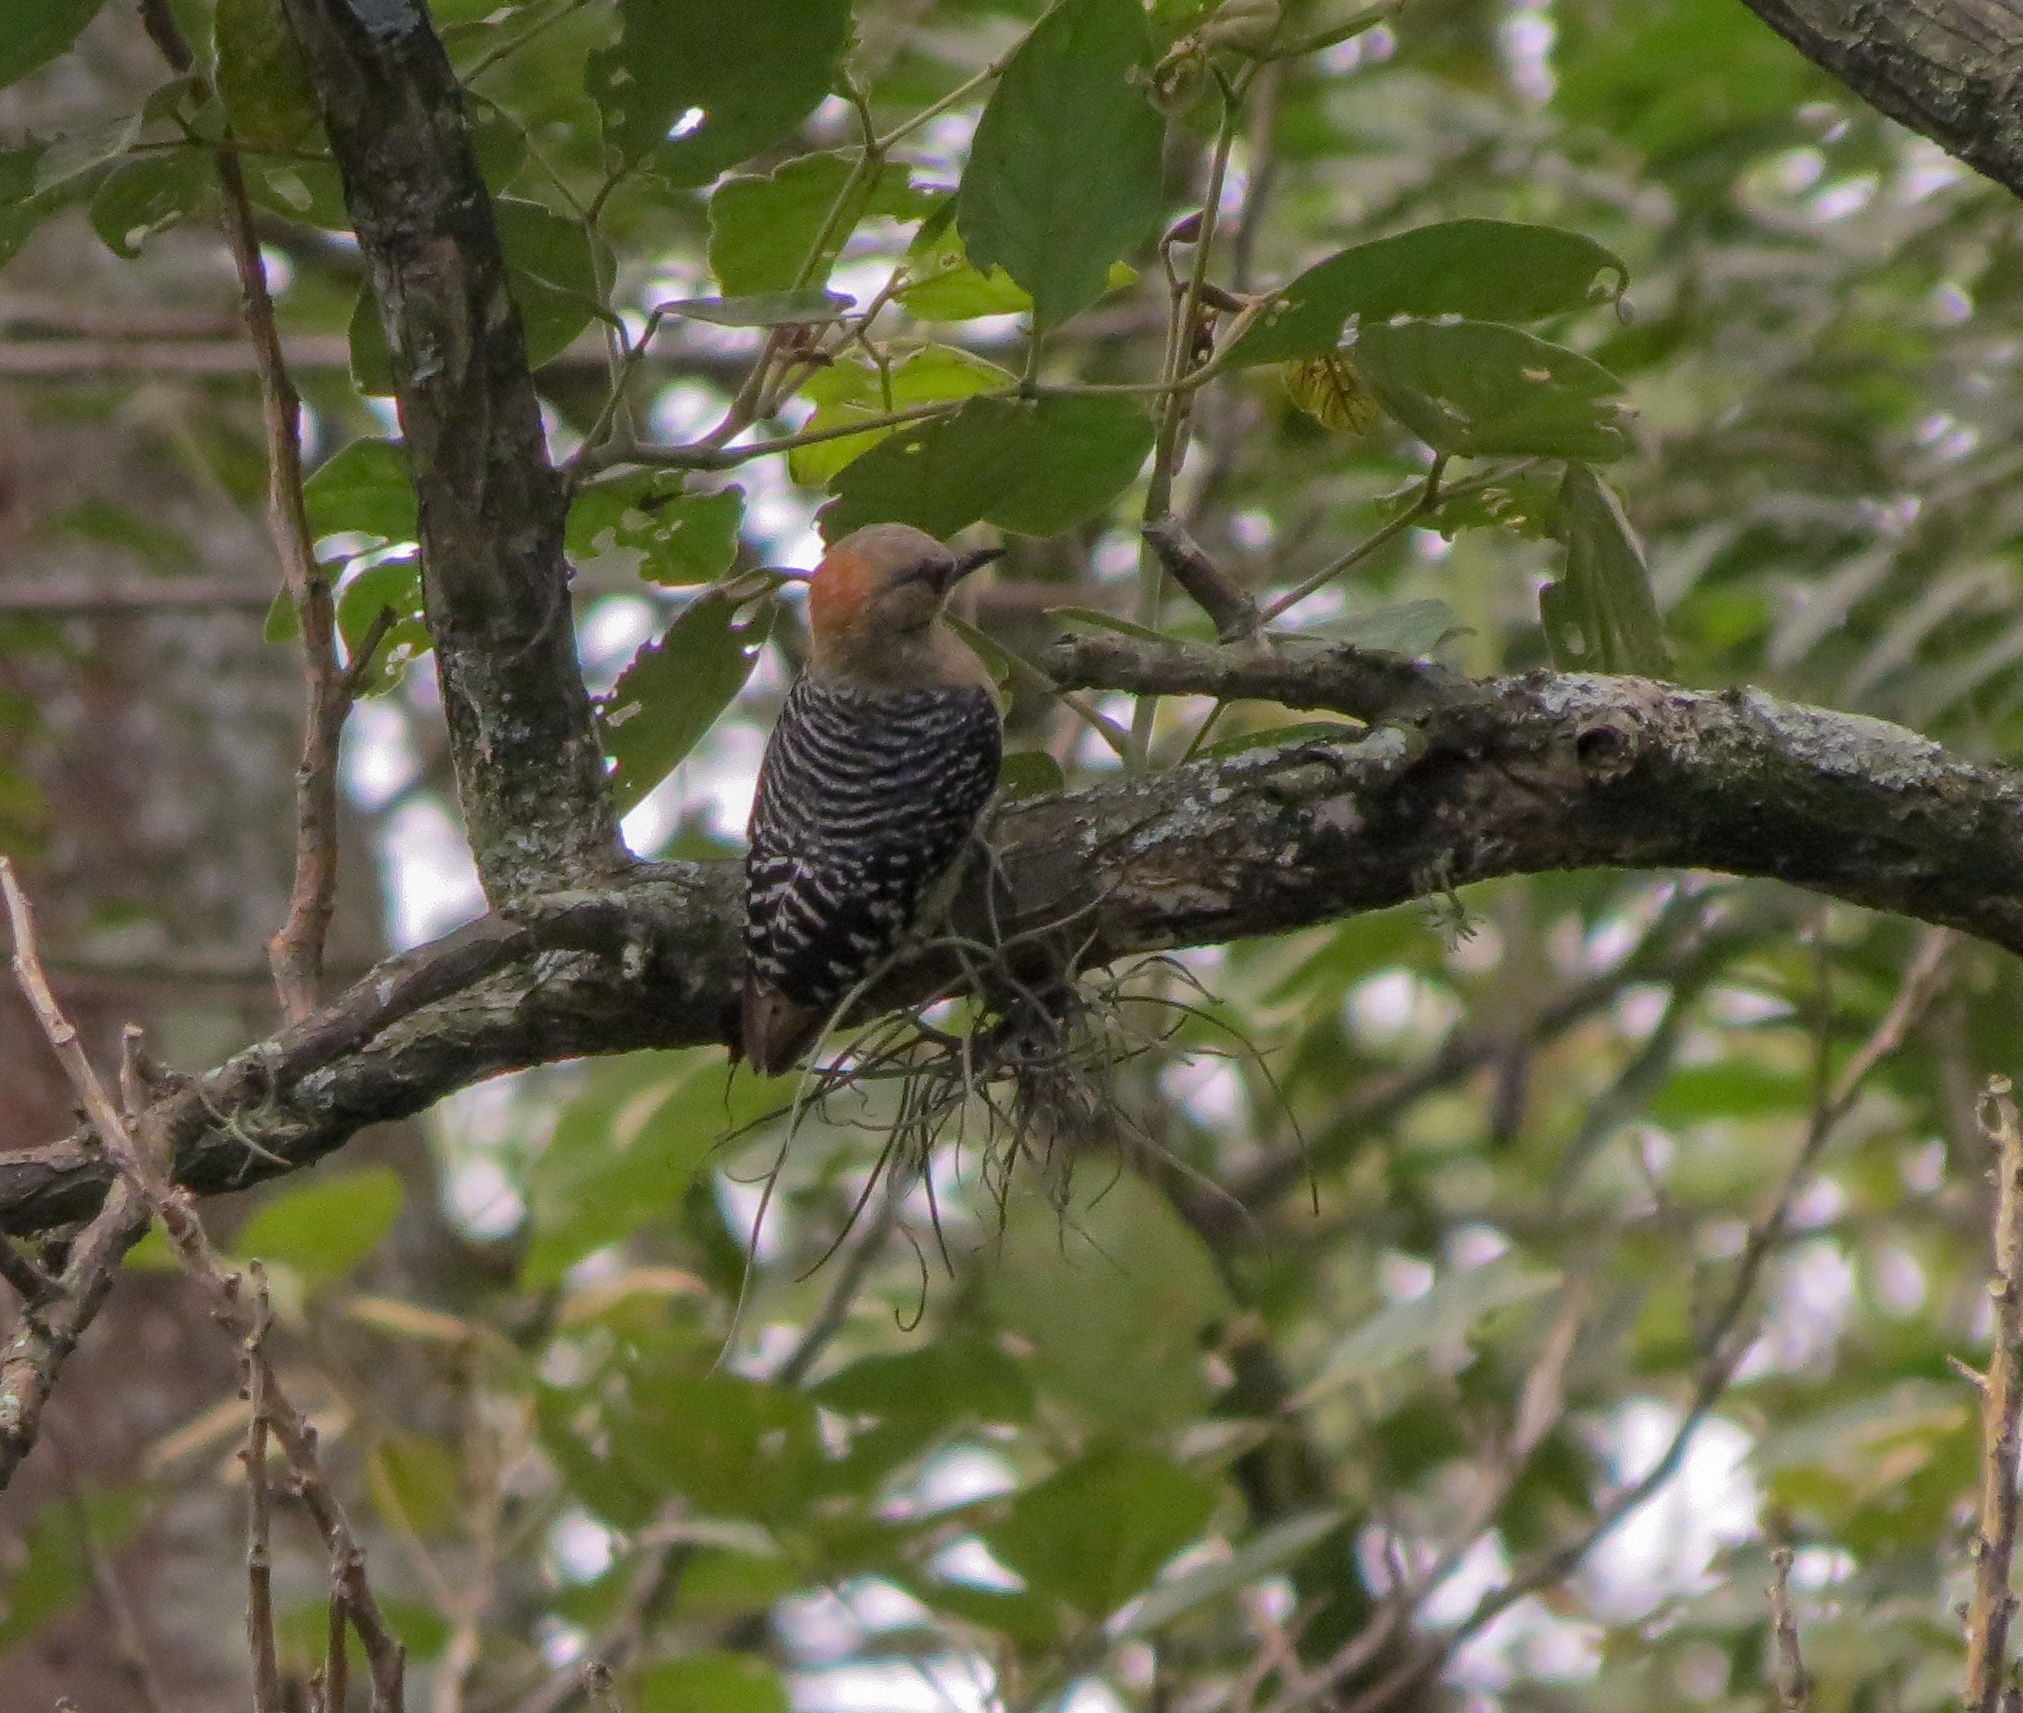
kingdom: Animalia
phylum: Chordata
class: Aves
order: Piciformes
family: Picidae
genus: Melanerpes
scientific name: Melanerpes rubricapillus
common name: Red-crowned woodpecker
